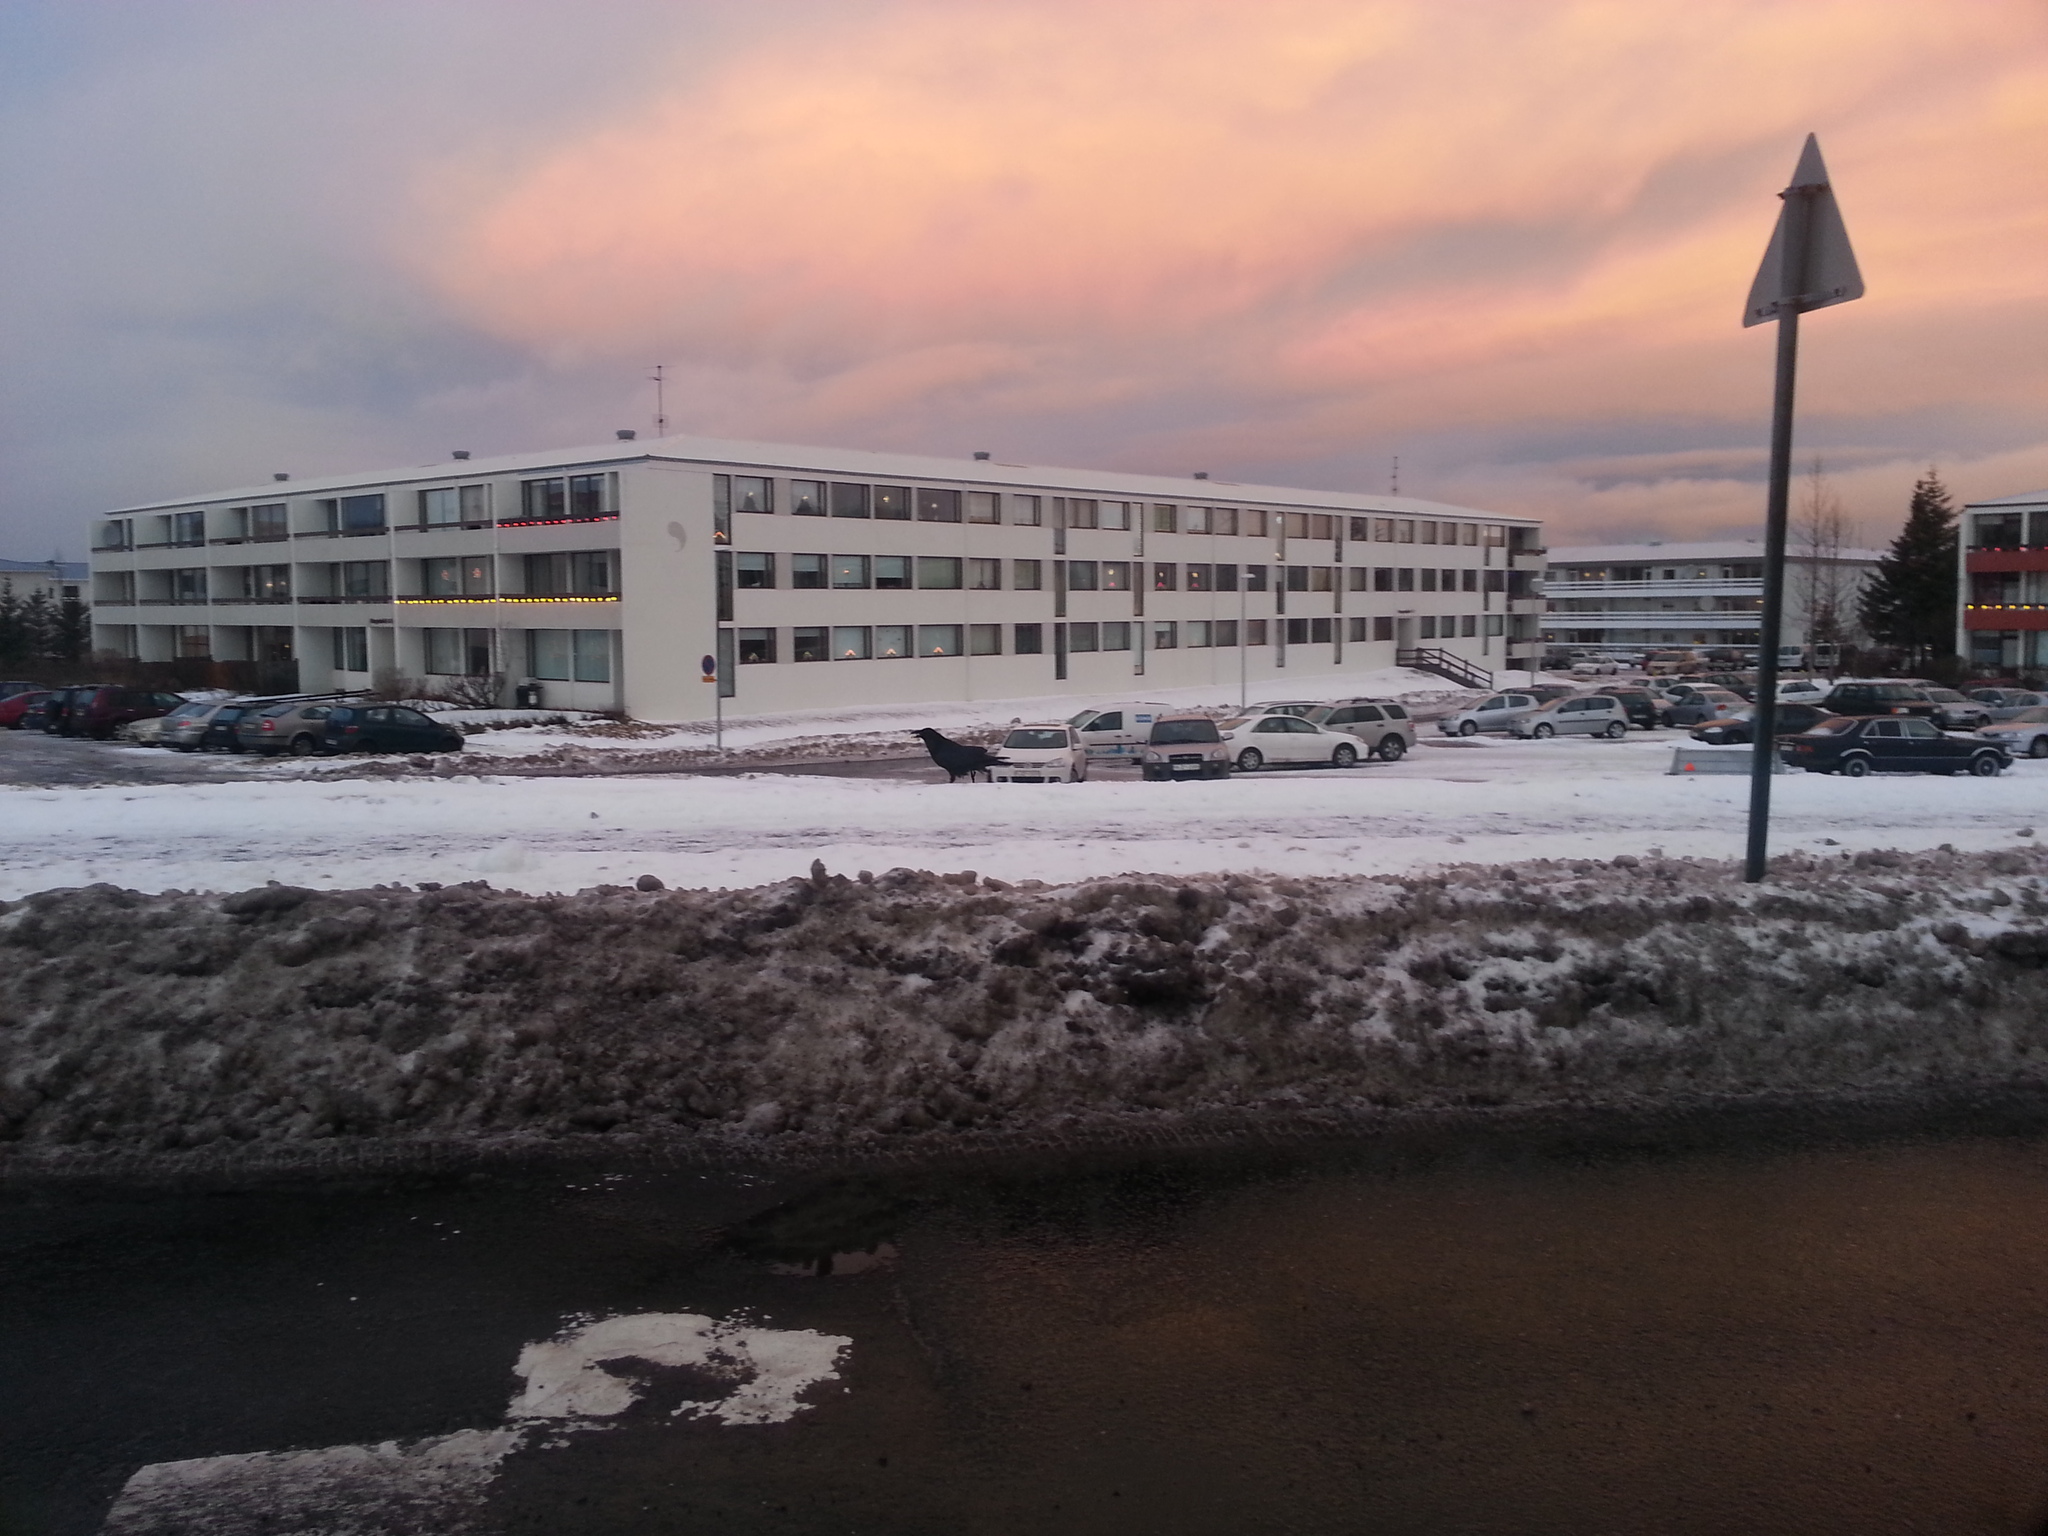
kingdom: Animalia
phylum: Chordata
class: Aves
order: Passeriformes
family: Corvidae
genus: Corvus
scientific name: Corvus corax
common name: Common raven
